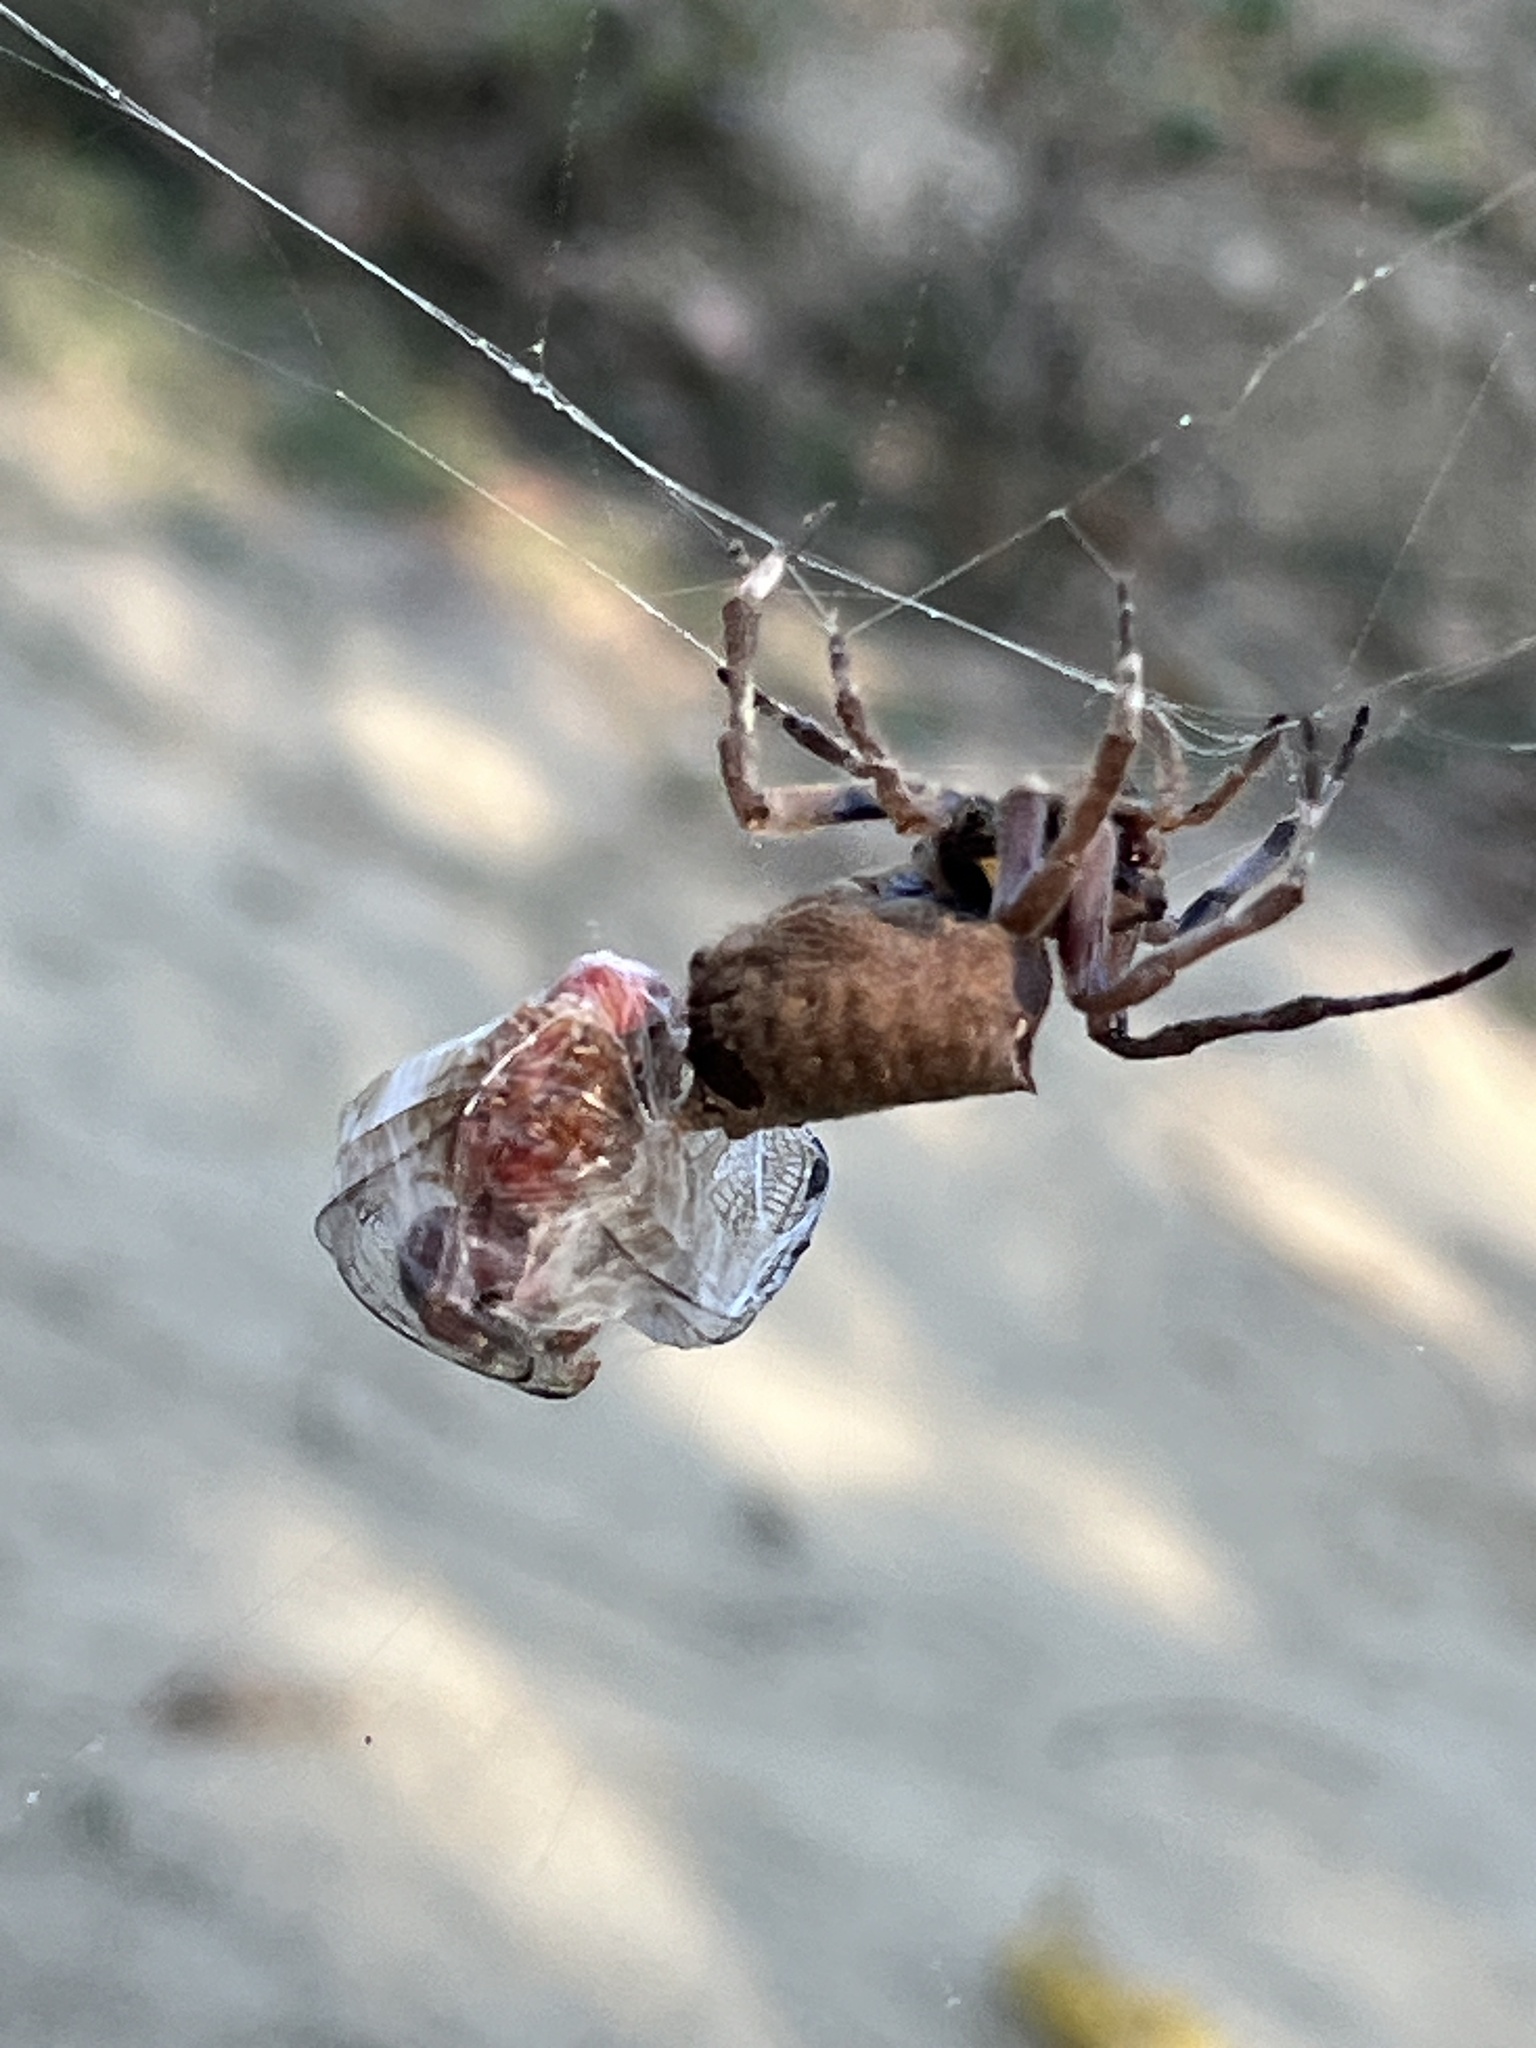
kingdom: Animalia
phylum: Arthropoda
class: Arachnida
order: Araneae
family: Araneidae
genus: Parawixia
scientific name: Parawixia dehaani
